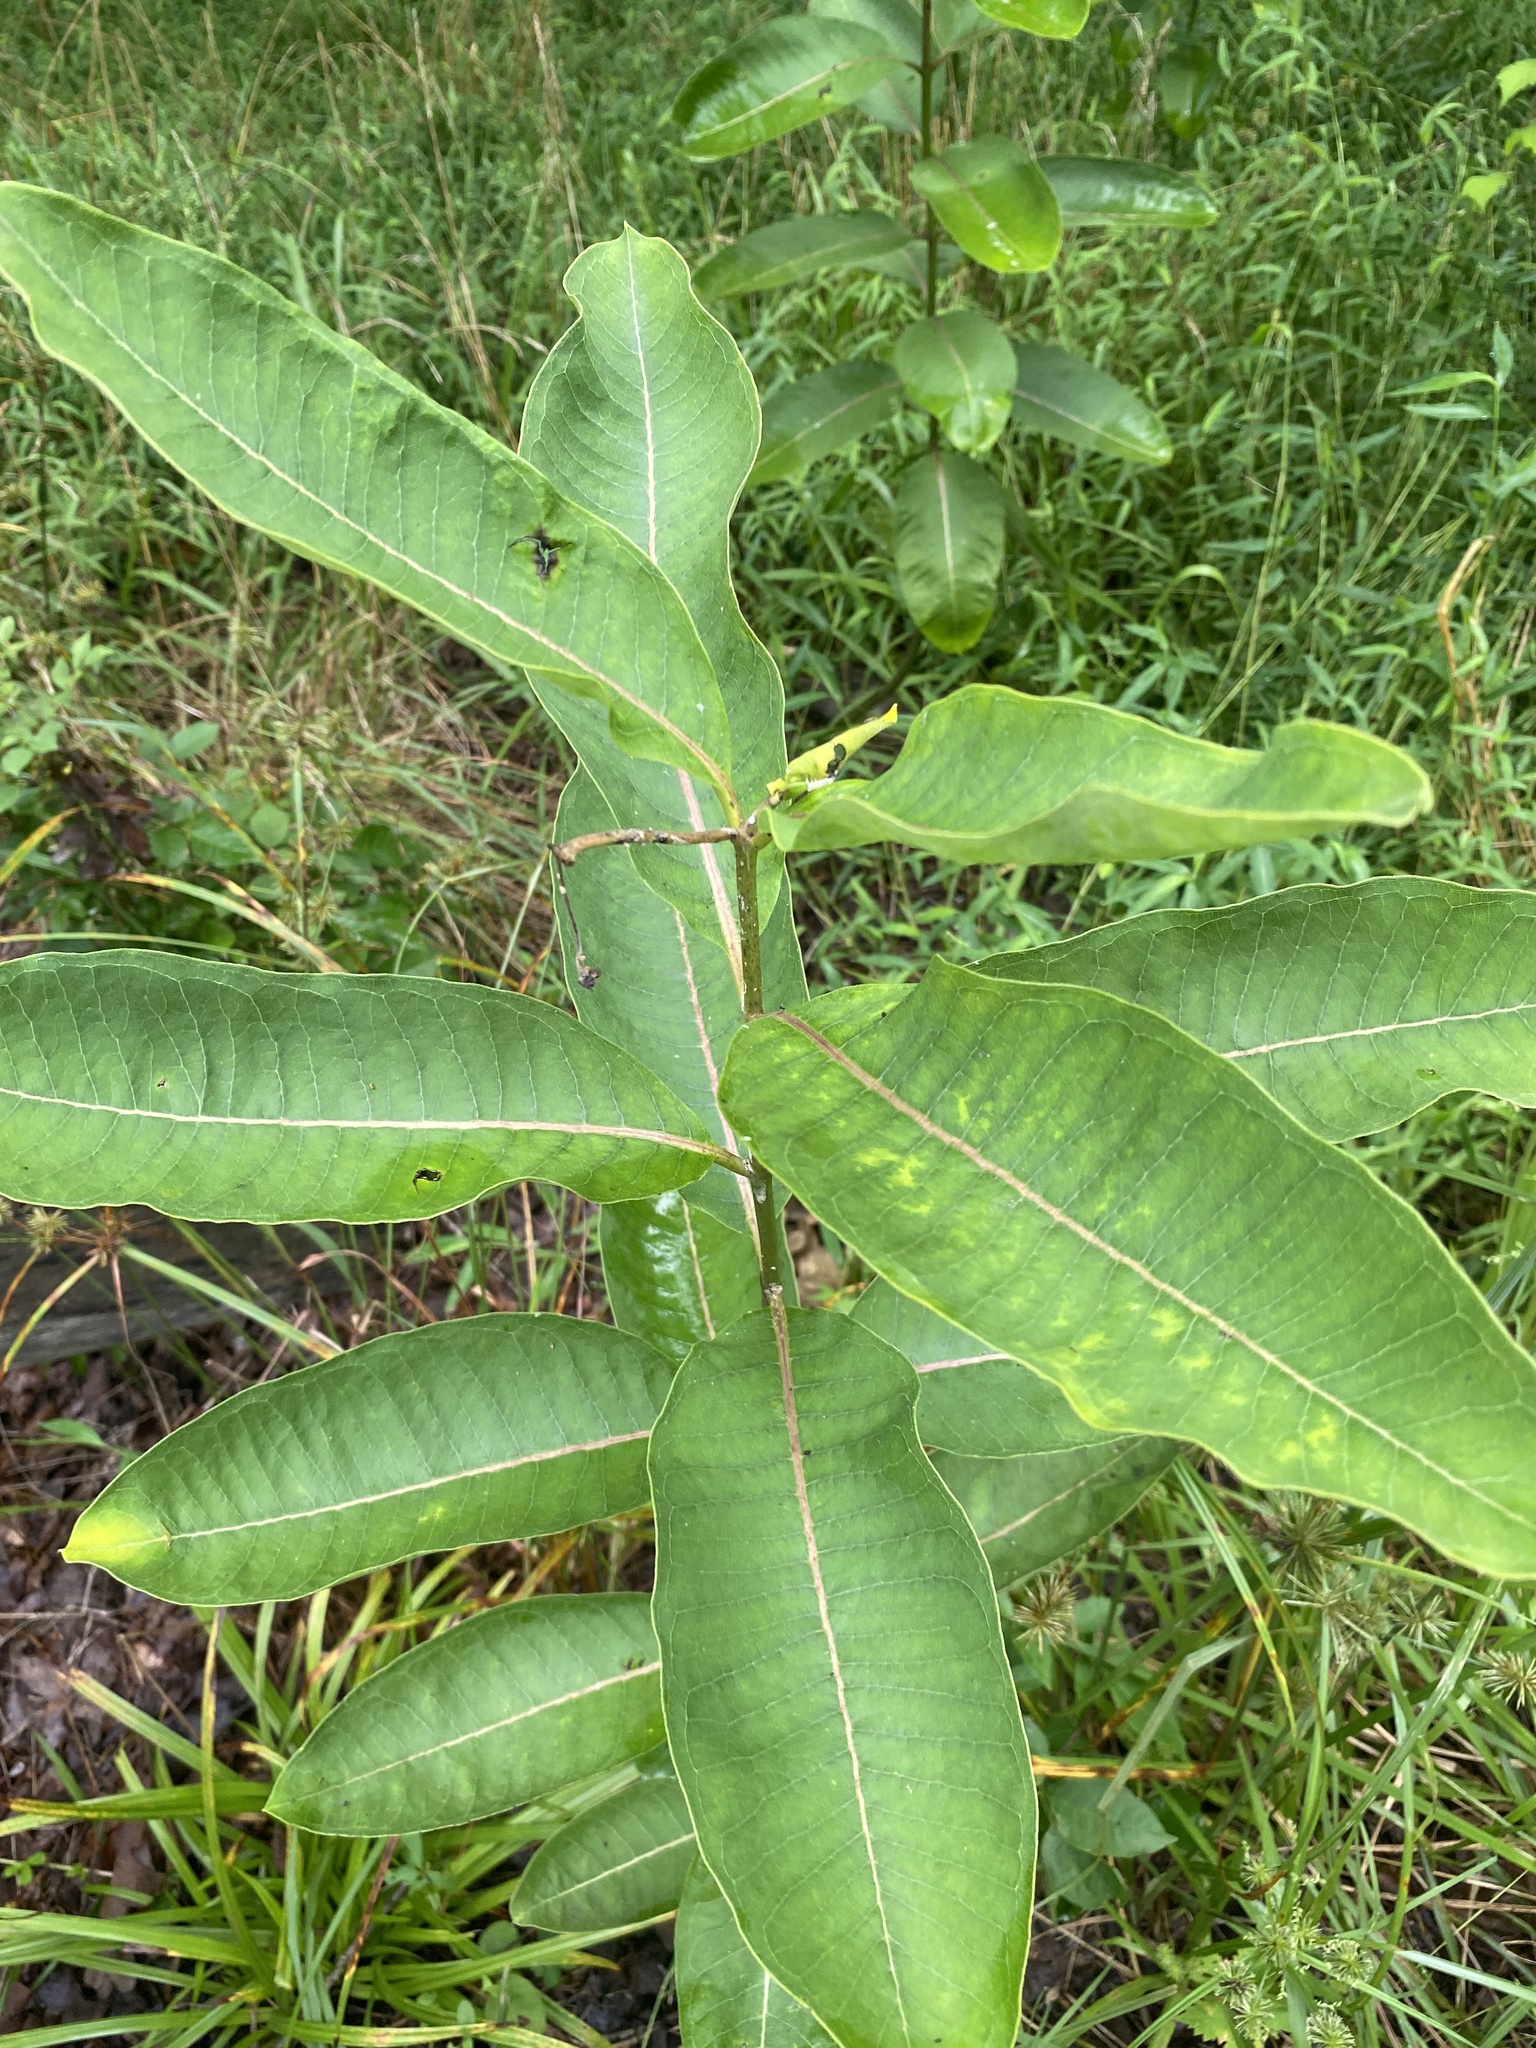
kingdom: Plantae
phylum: Tracheophyta
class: Magnoliopsida
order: Gentianales
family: Apocynaceae
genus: Asclepias
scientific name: Asclepias syriaca
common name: Common milkweed
